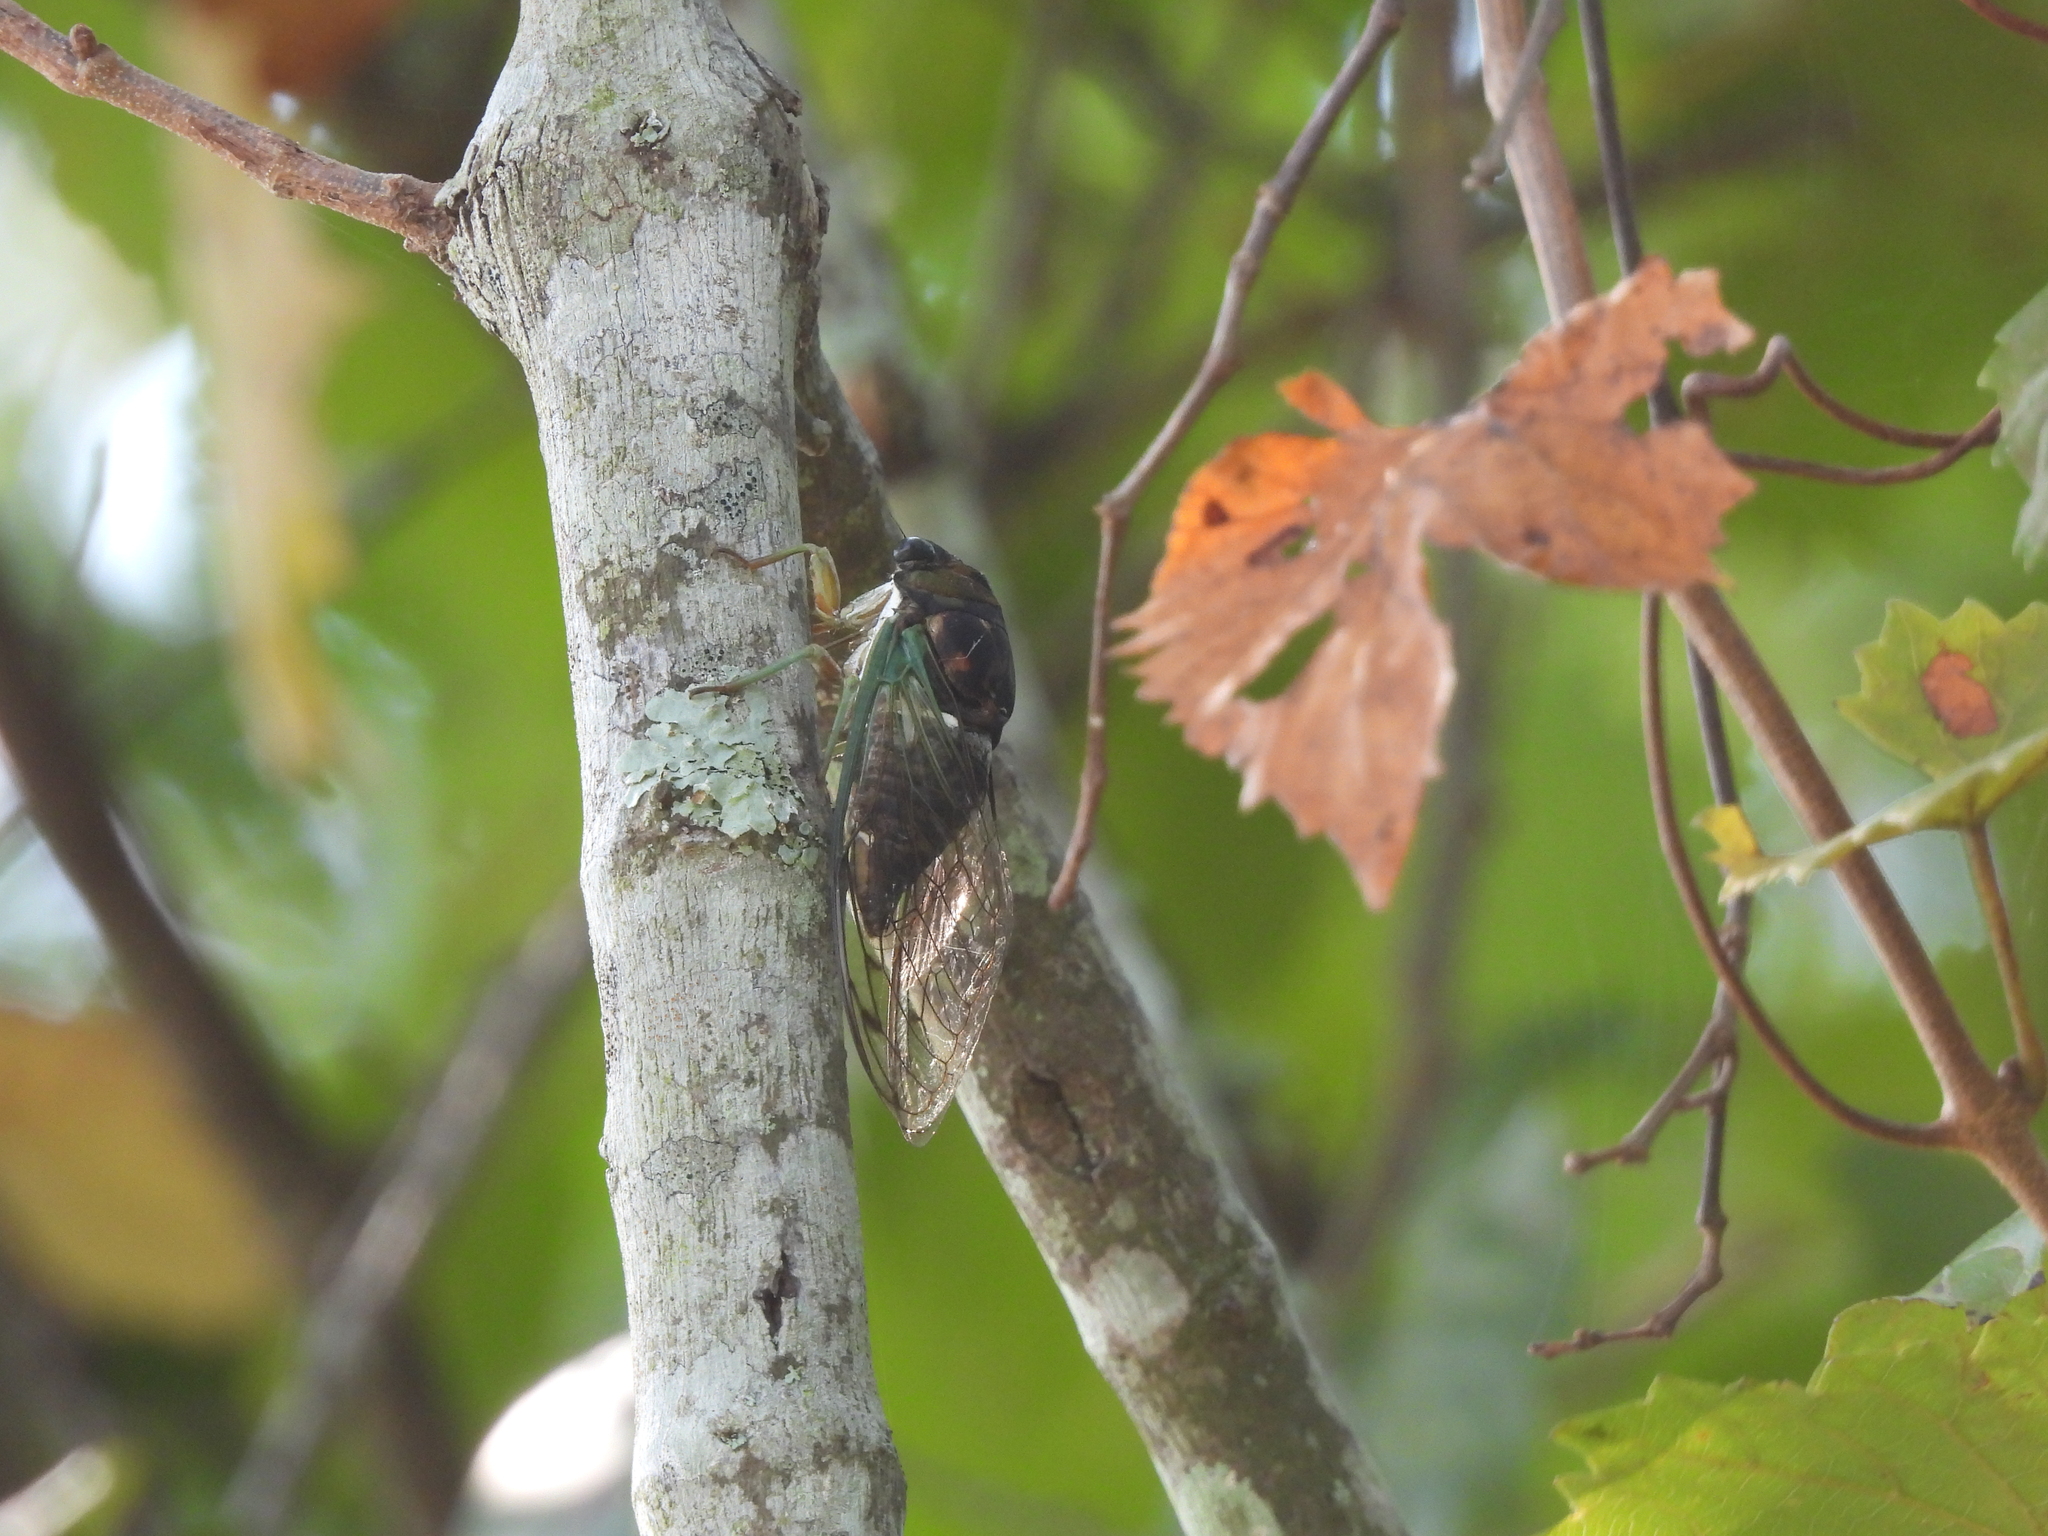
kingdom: Animalia
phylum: Arthropoda
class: Insecta
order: Hemiptera
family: Cicadidae
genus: Neotibicen
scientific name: Neotibicen tibicen
